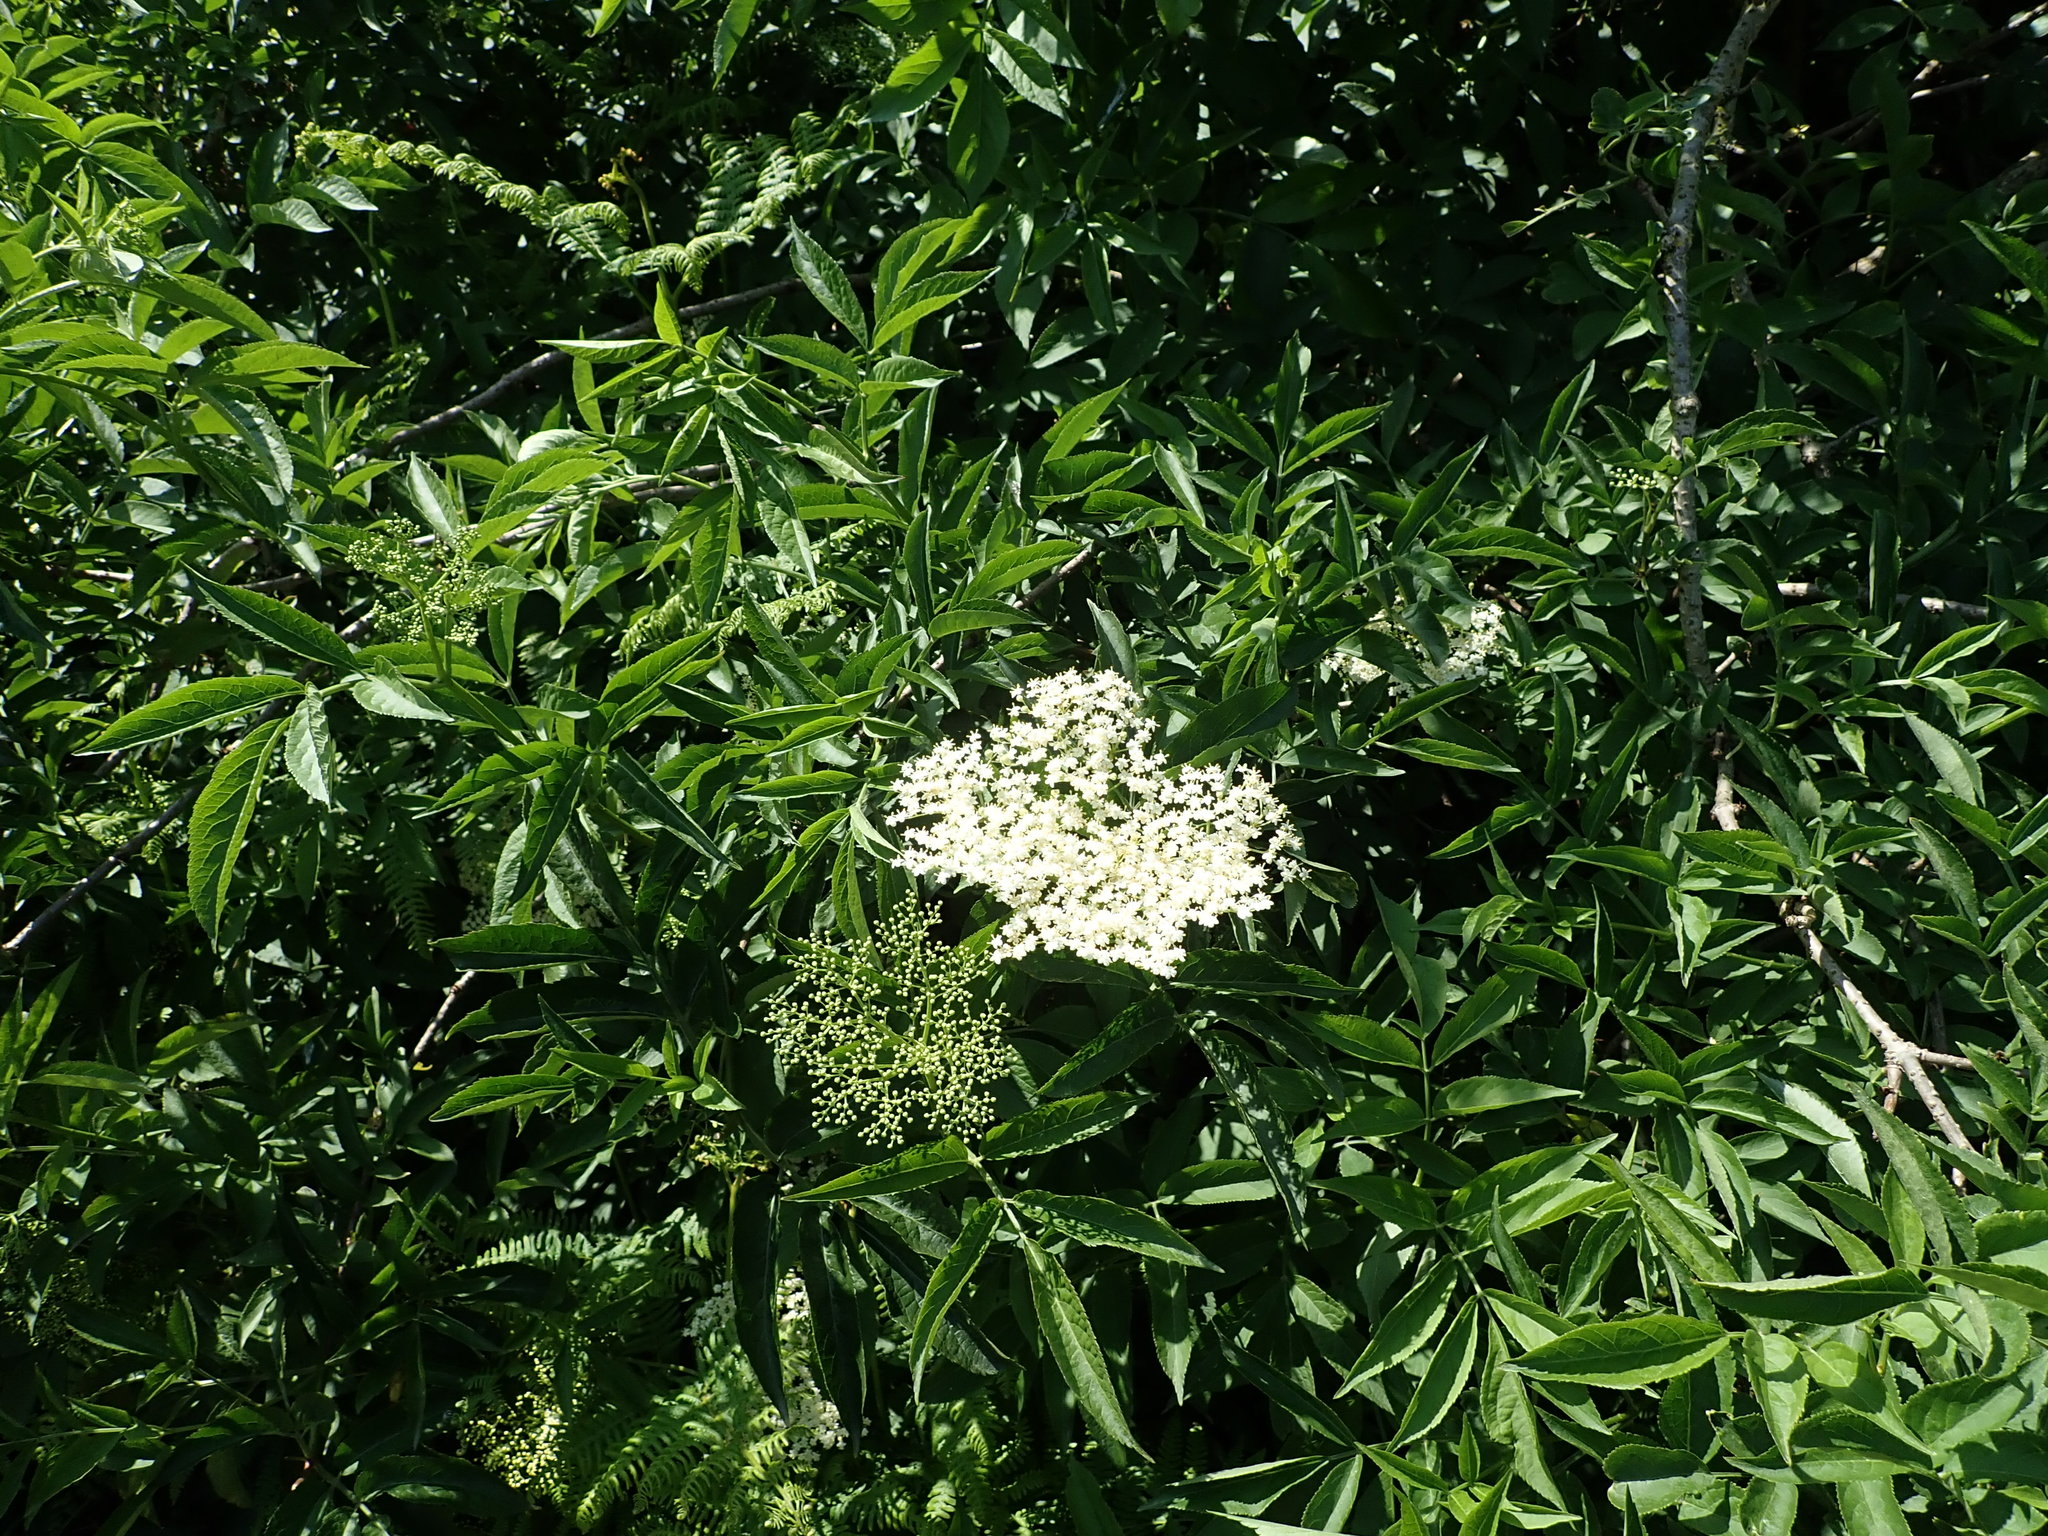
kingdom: Plantae
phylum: Tracheophyta
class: Magnoliopsida
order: Dipsacales
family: Viburnaceae
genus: Sambucus
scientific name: Sambucus nigra
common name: Elder
